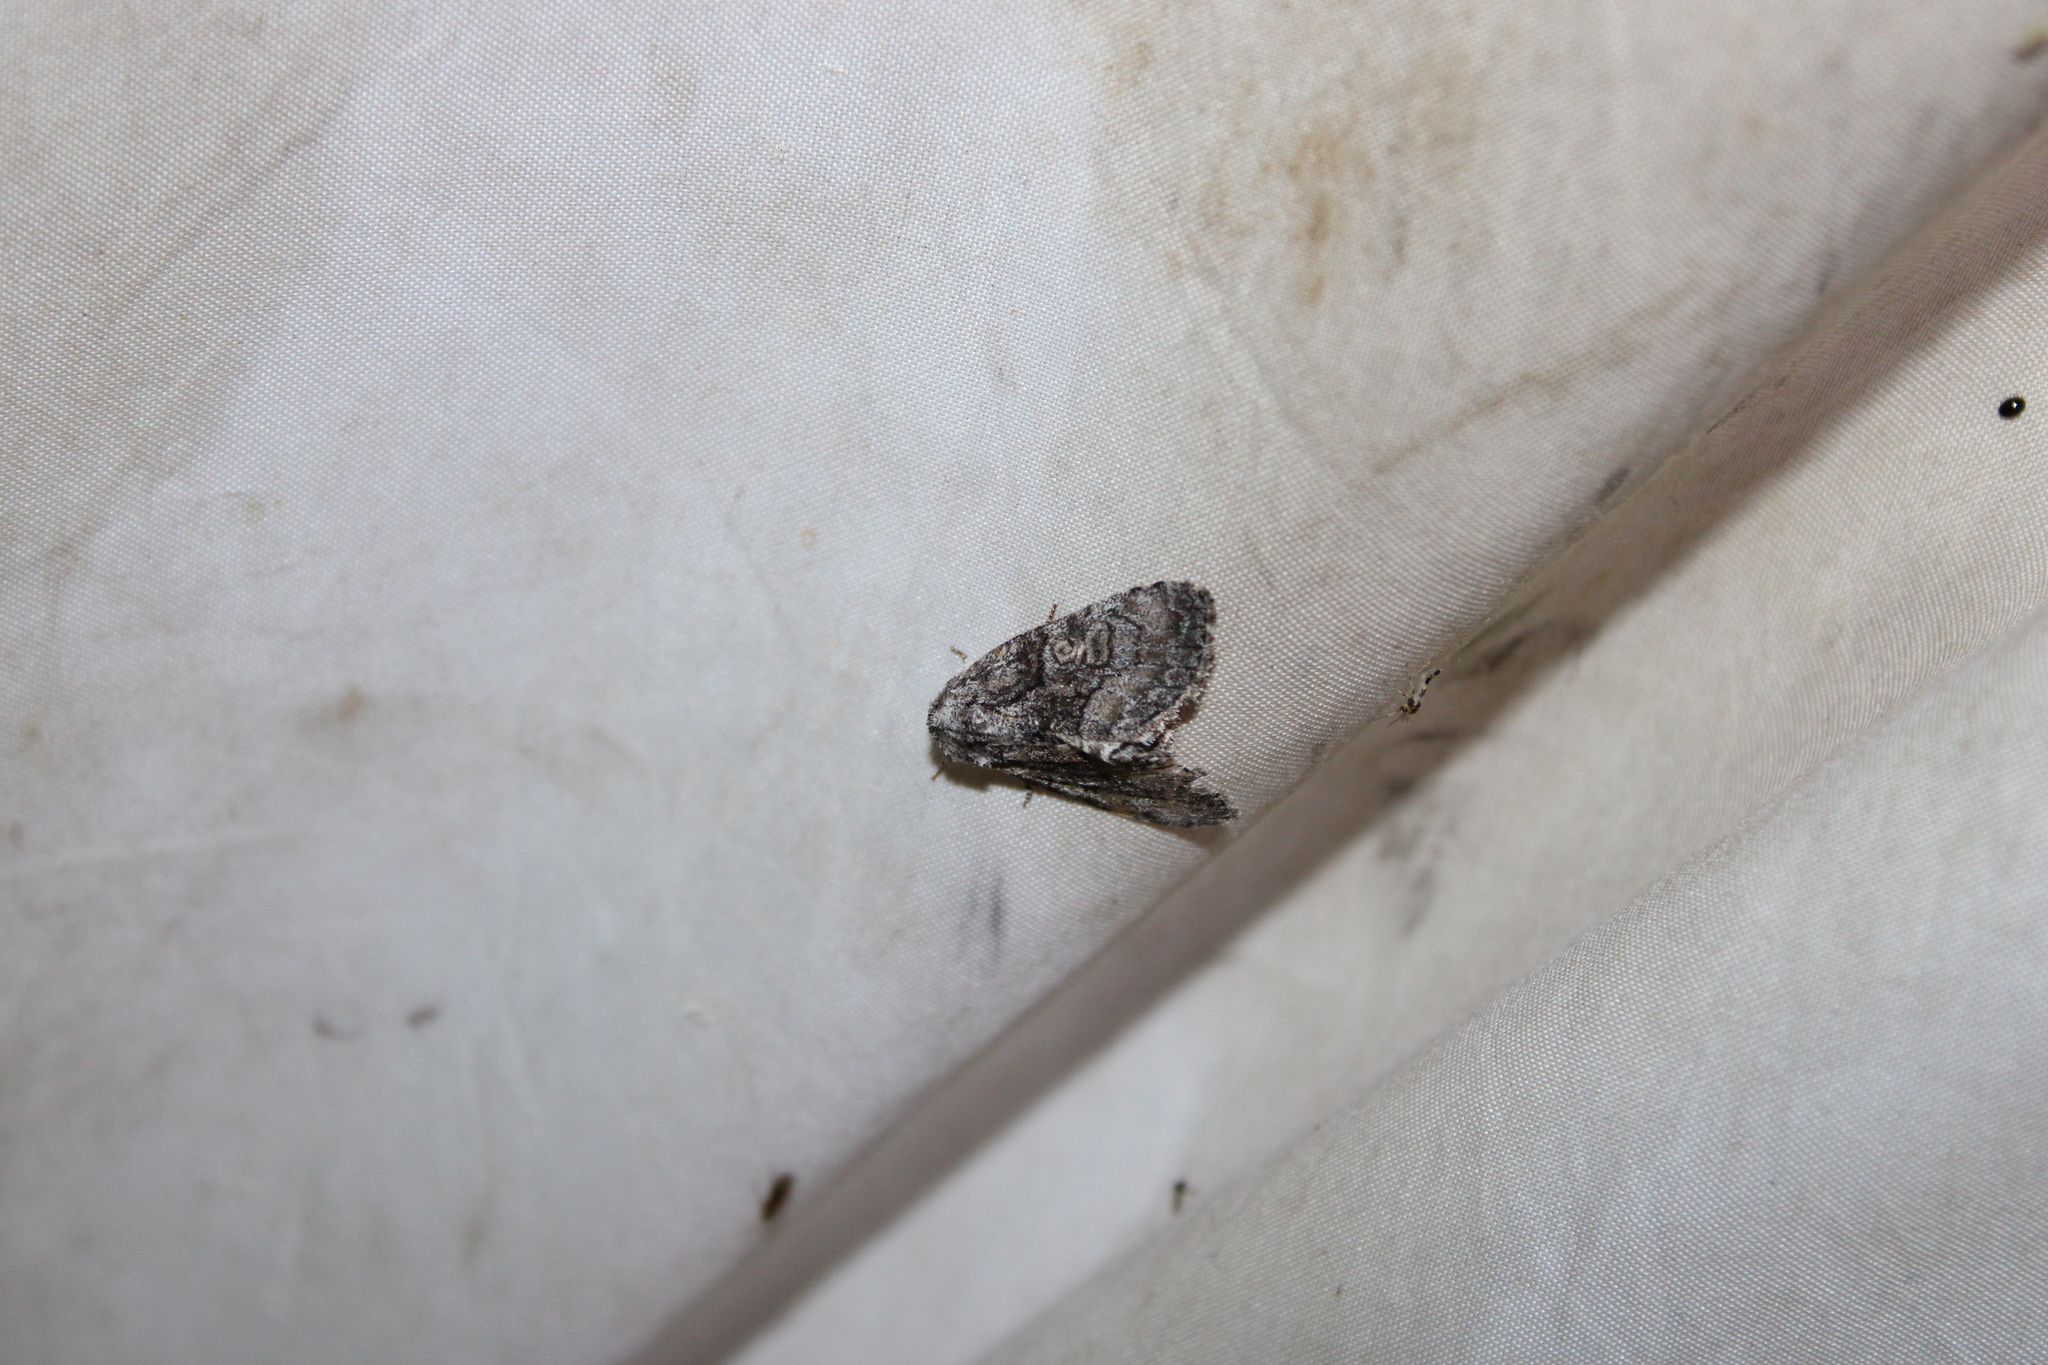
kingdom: Animalia
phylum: Arthropoda
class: Insecta
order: Lepidoptera
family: Noctuidae
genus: Raphia
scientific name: Raphia frater
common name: Brother
